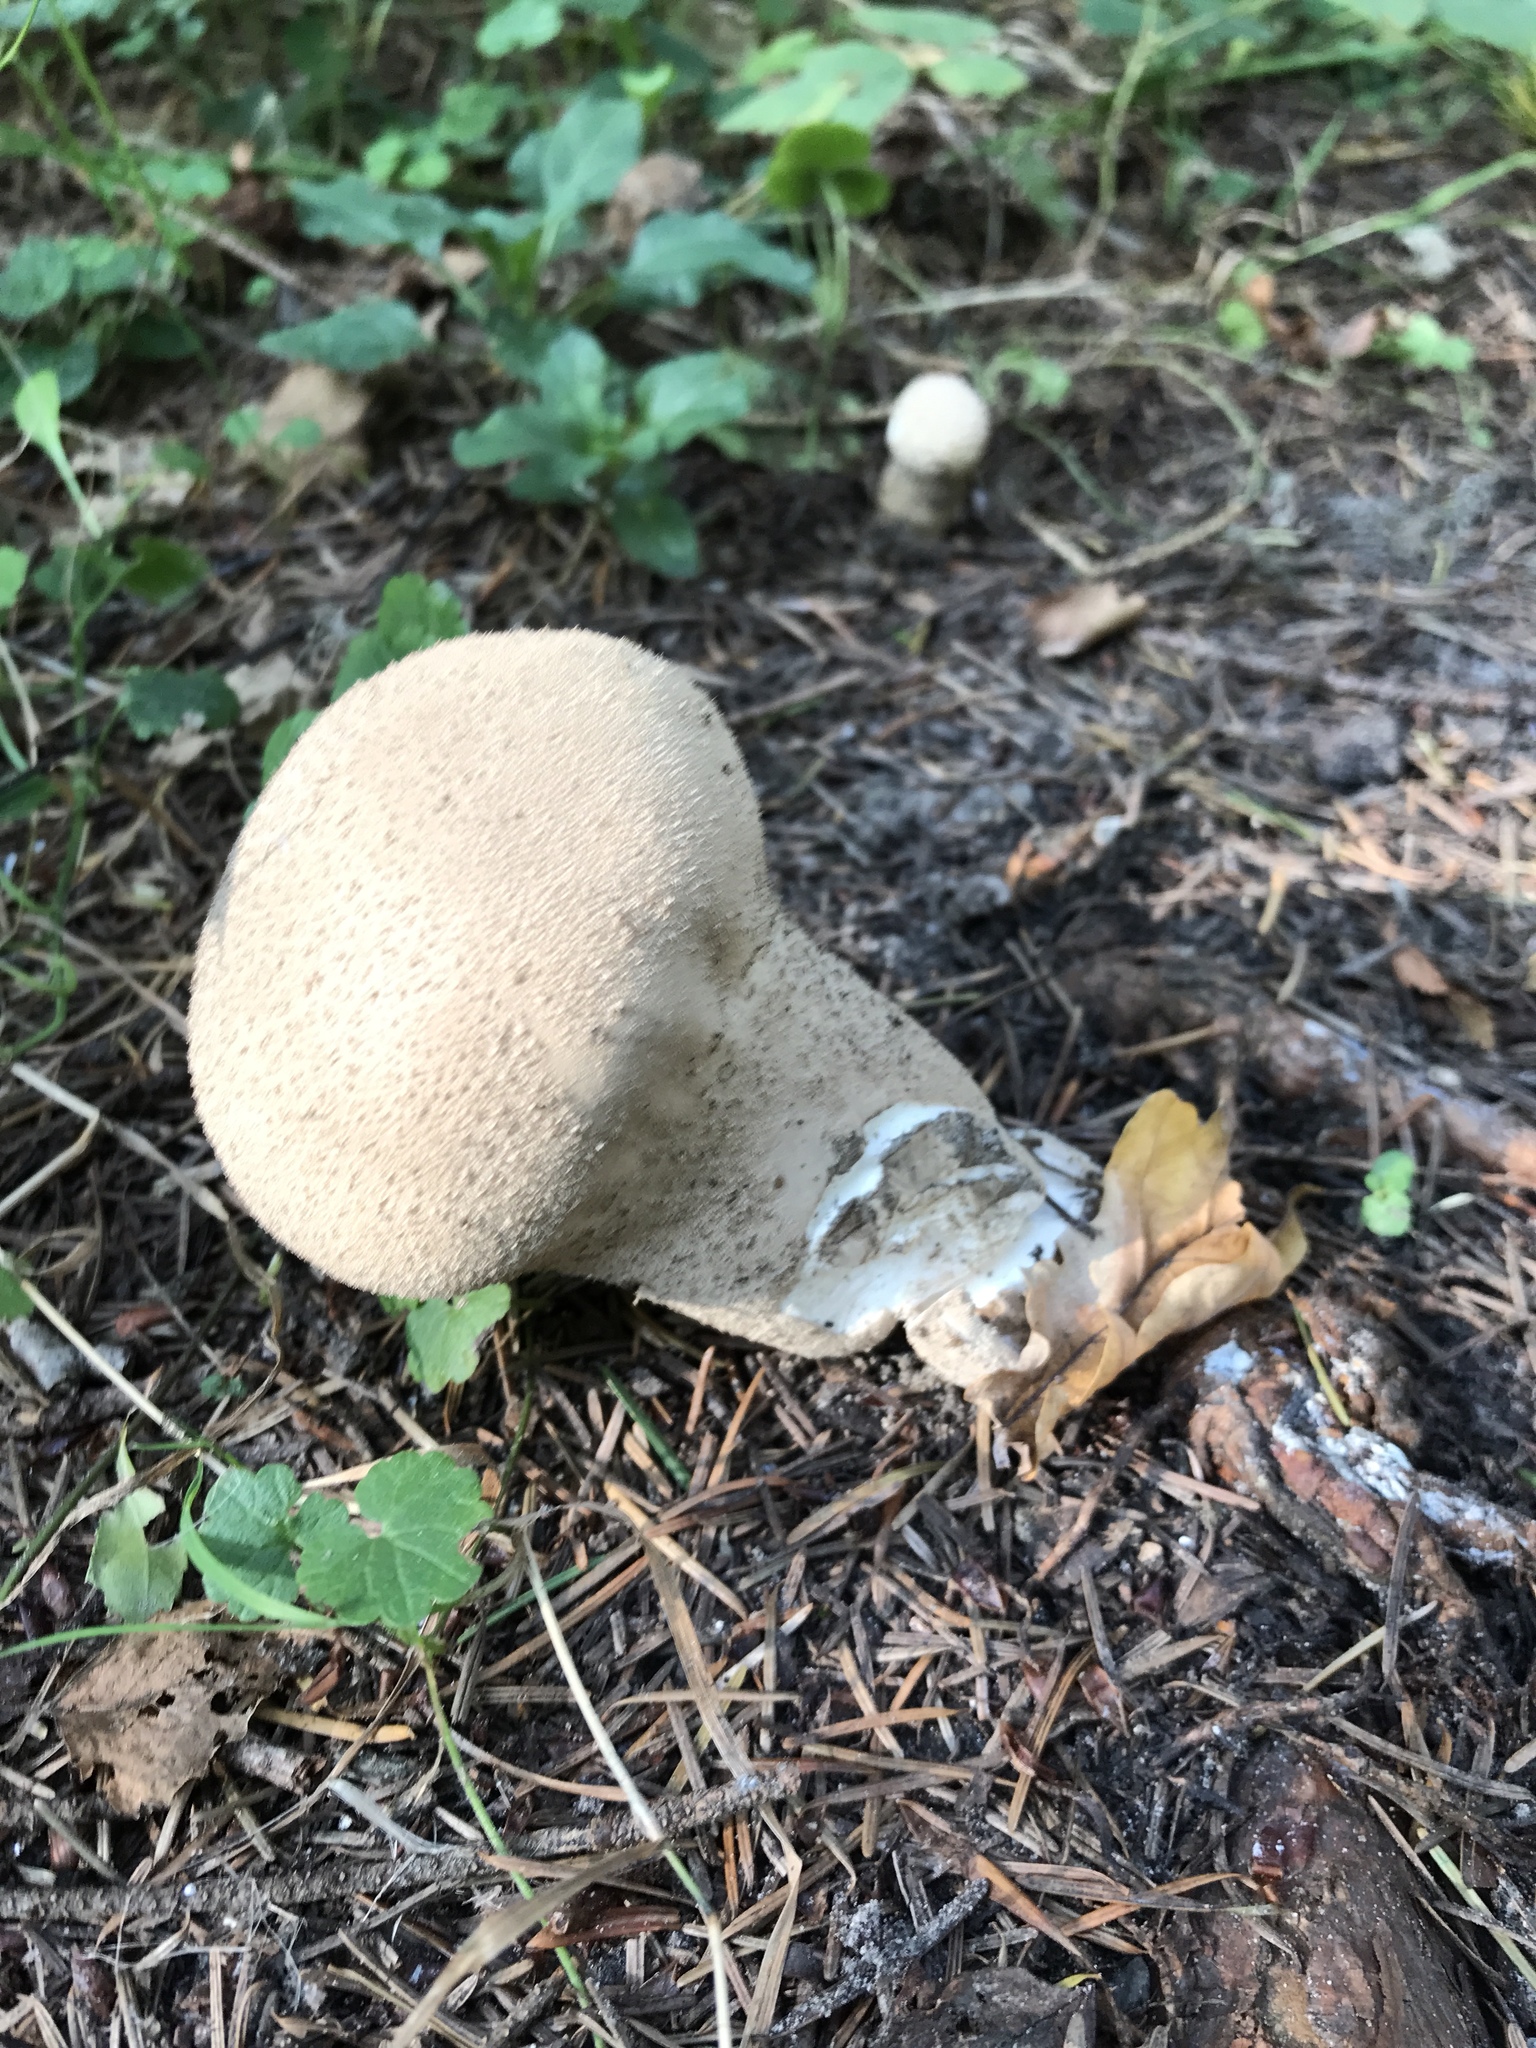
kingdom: Fungi
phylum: Basidiomycota
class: Agaricomycetes
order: Agaricales
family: Lycoperdaceae
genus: Lycoperdon
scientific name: Lycoperdon perlatum
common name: Common puffball
